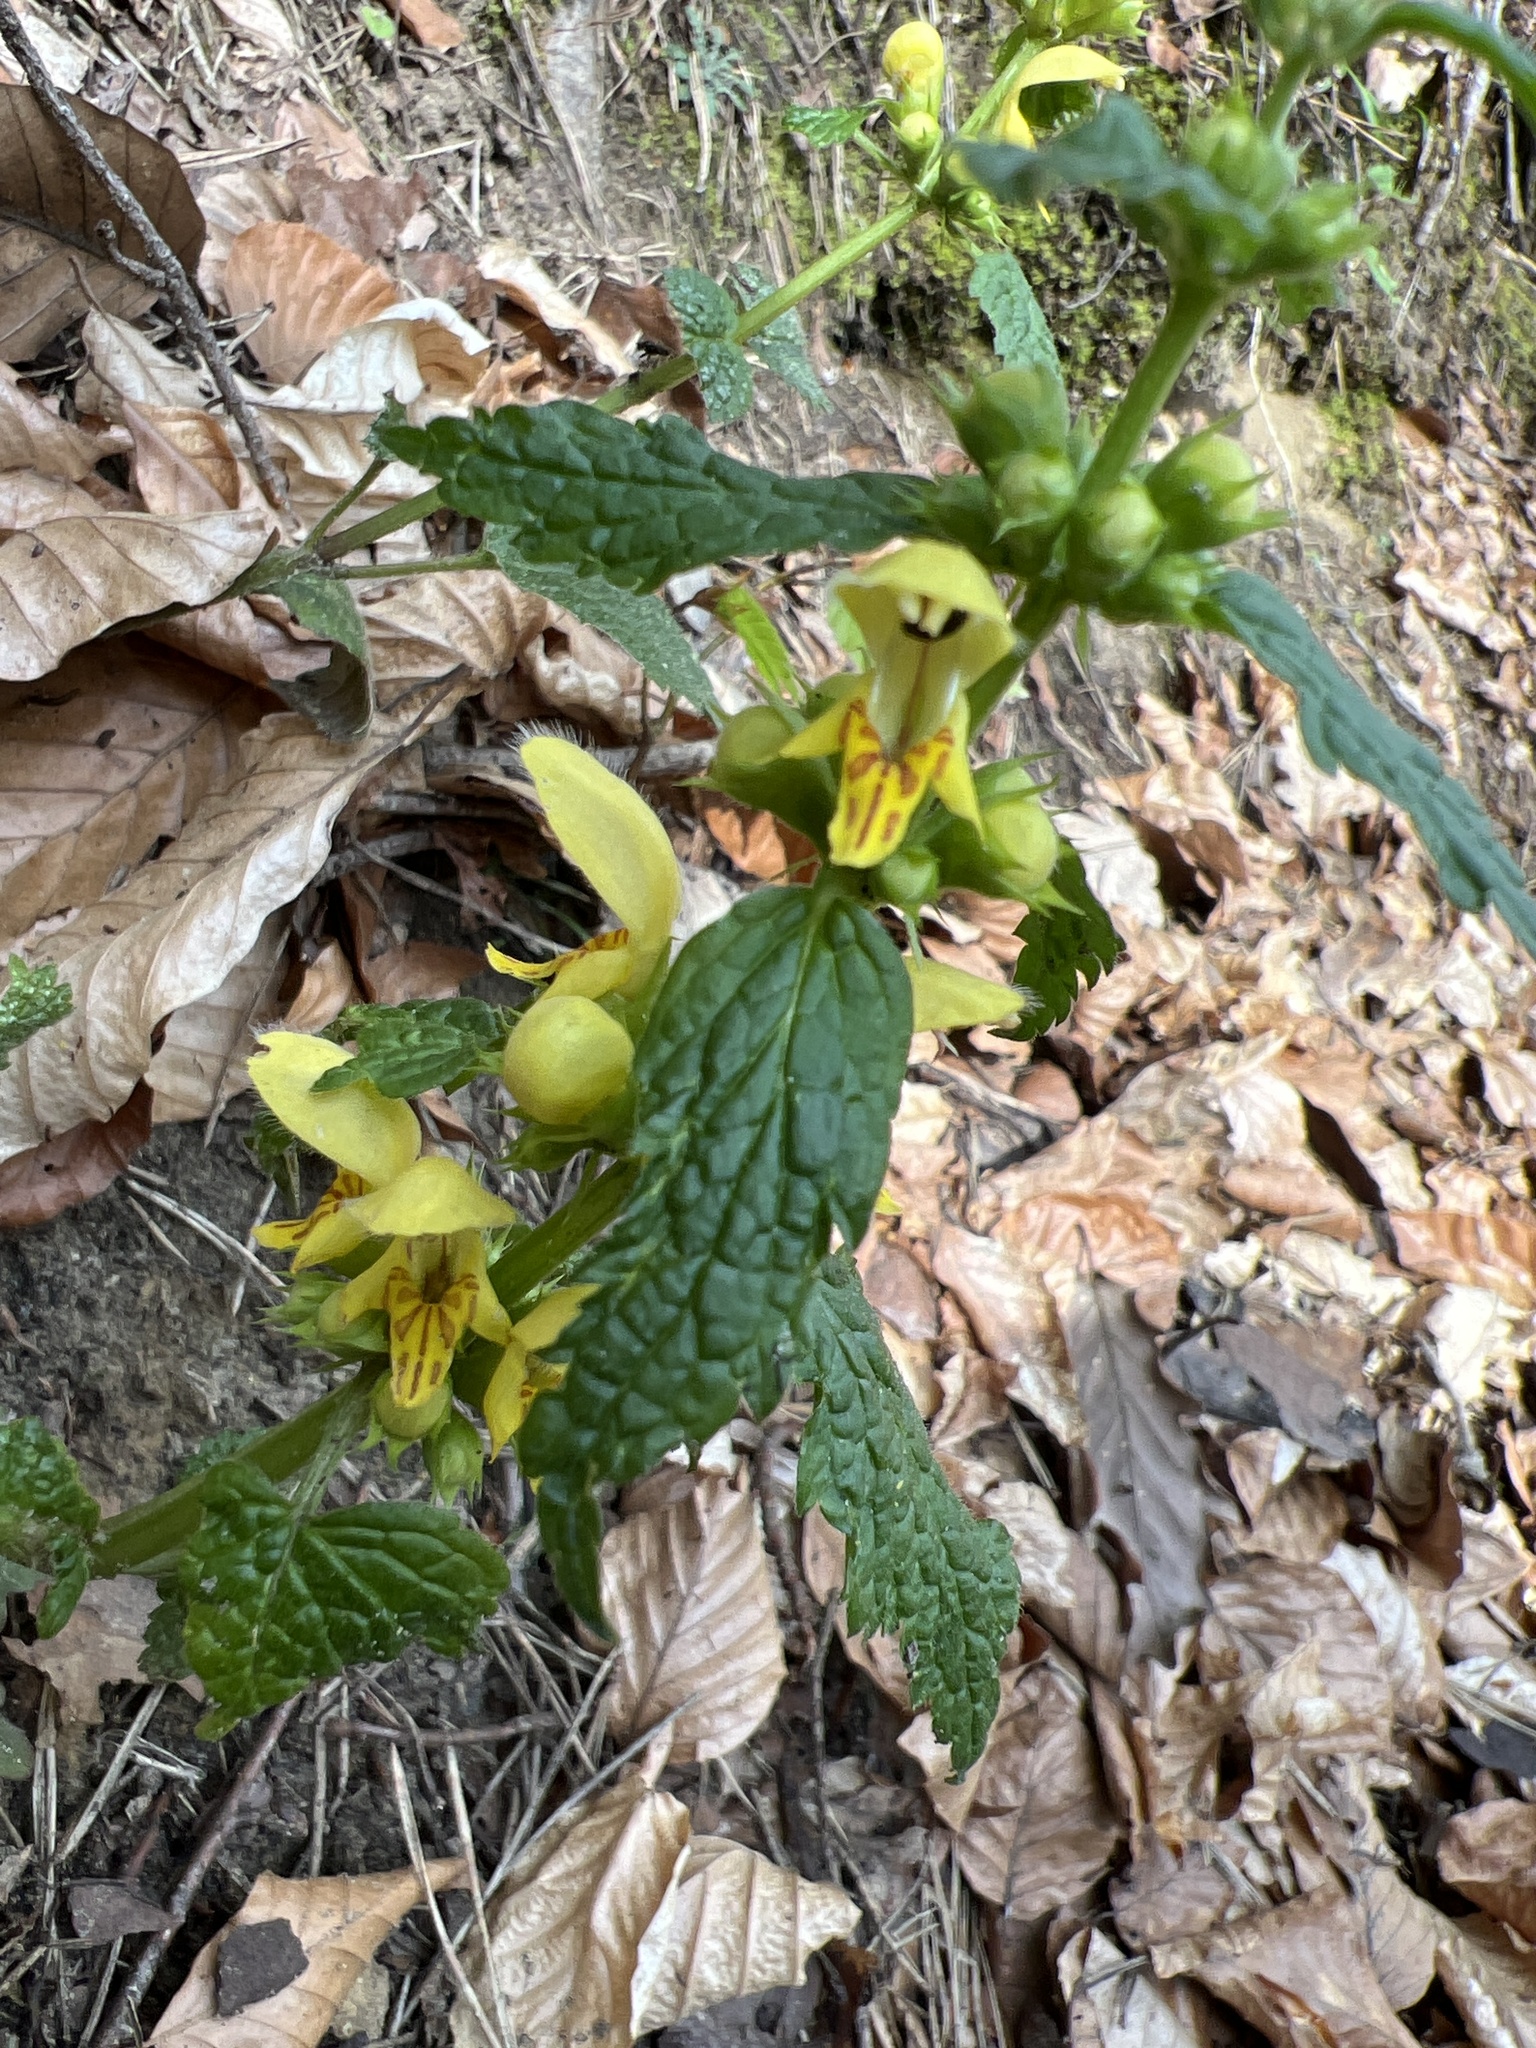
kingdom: Plantae
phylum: Tracheophyta
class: Magnoliopsida
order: Lamiales
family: Lamiaceae
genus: Lamium
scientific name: Lamium galeobdolon
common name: Yellow archangel
